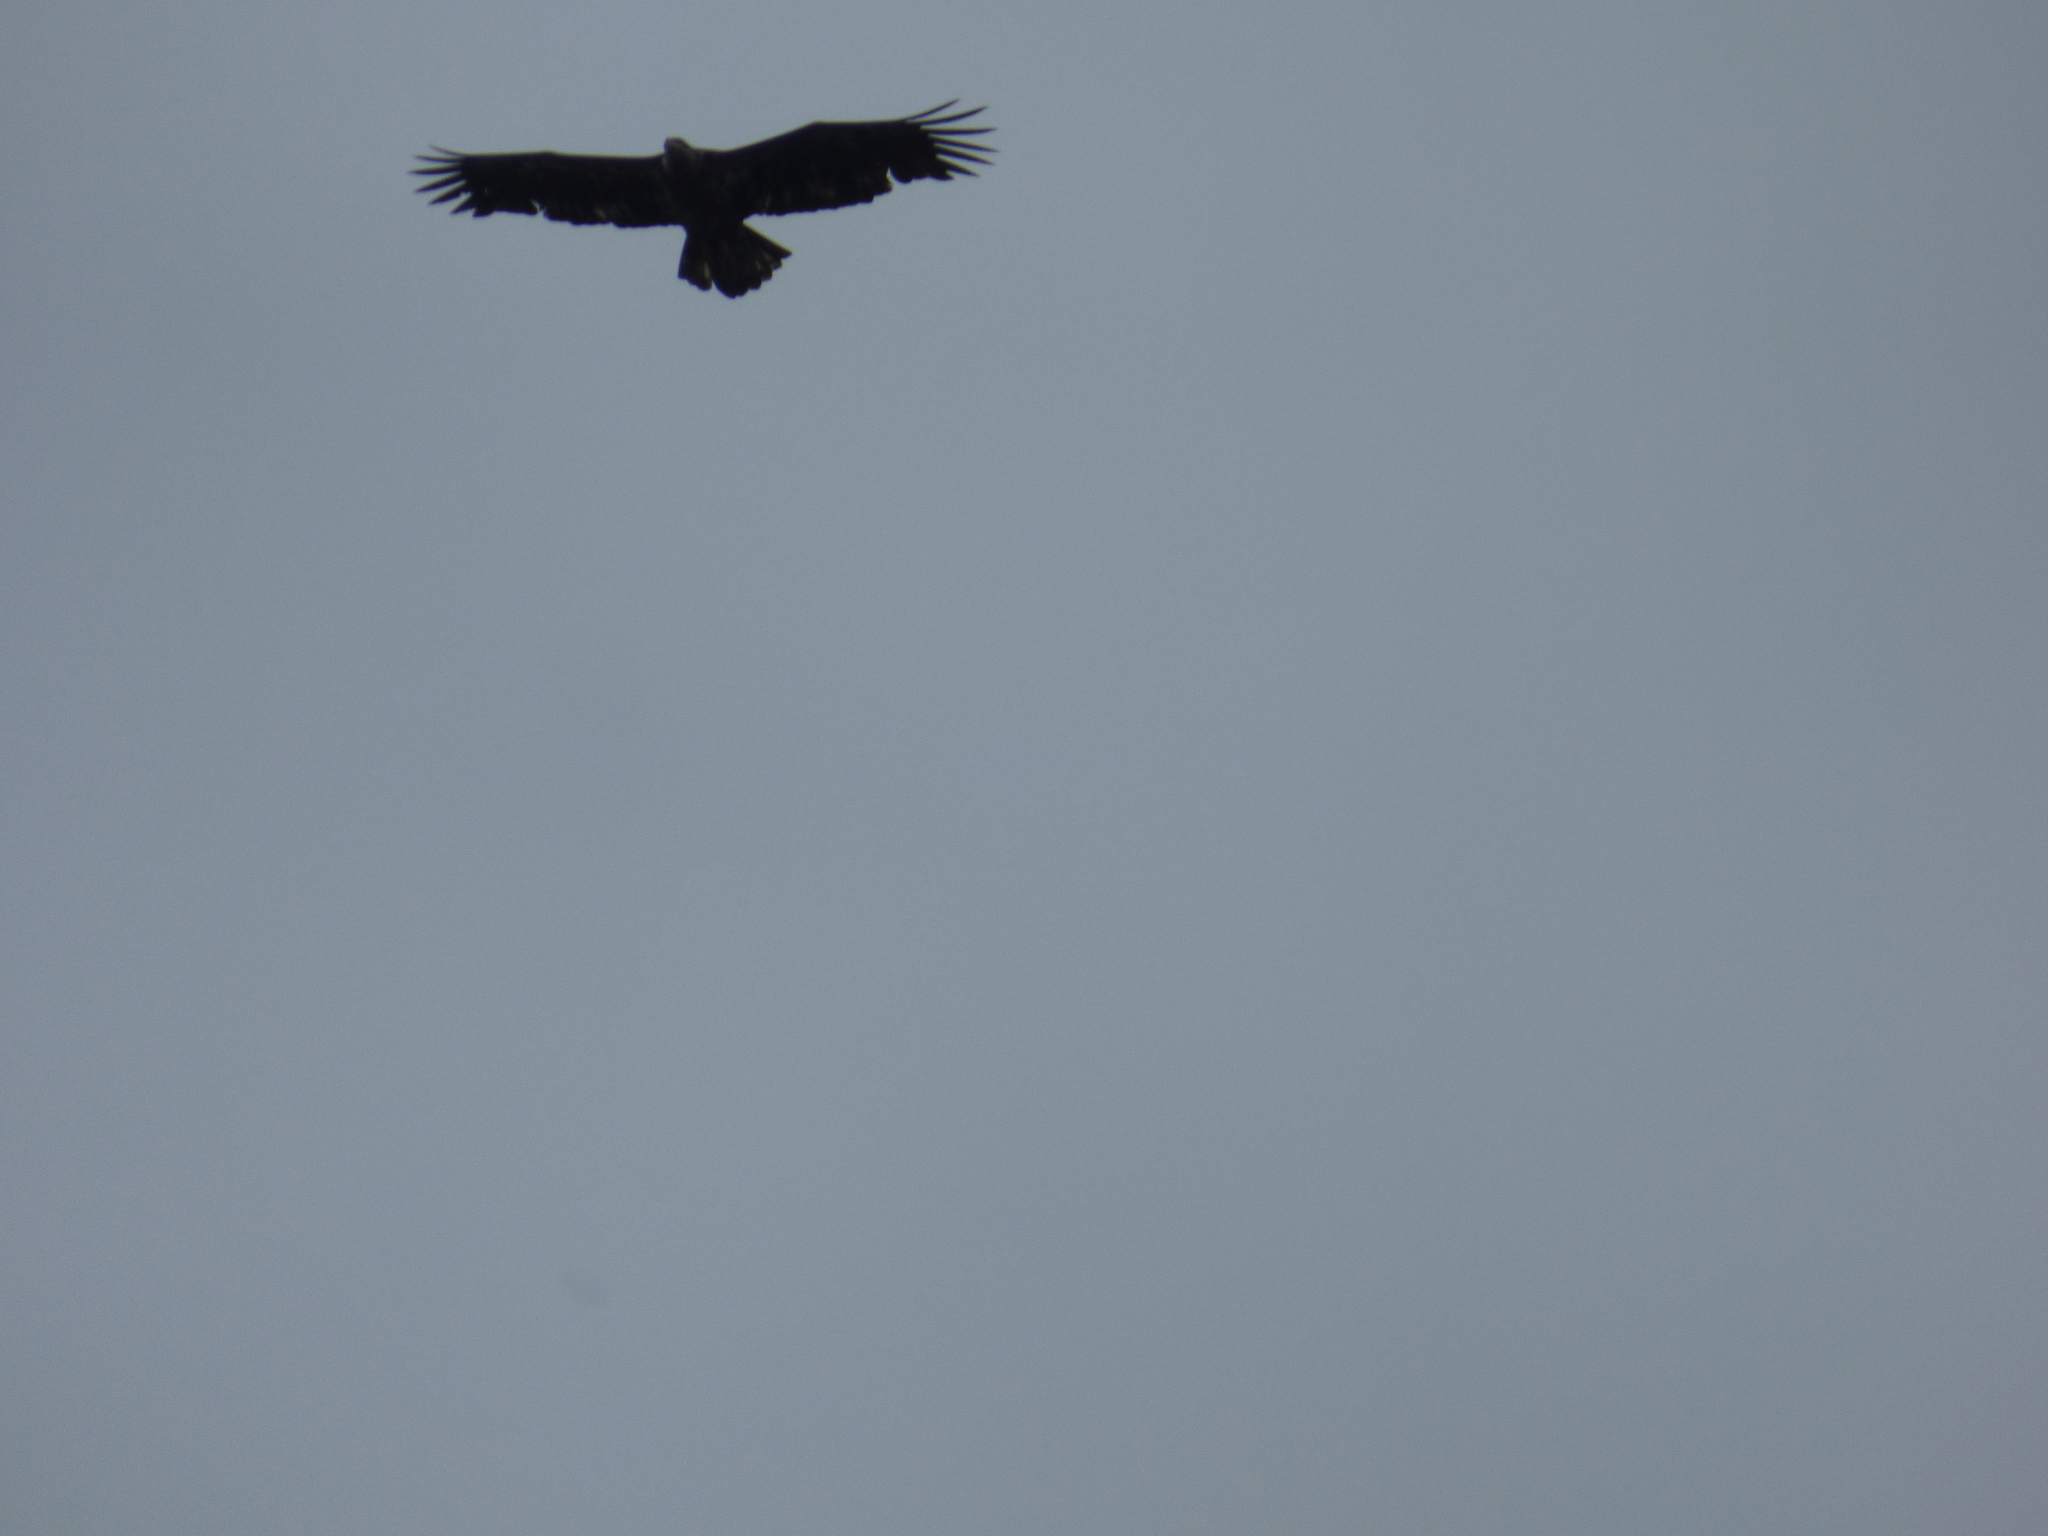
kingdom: Animalia
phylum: Chordata
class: Aves
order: Accipitriformes
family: Accipitridae
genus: Haliaeetus
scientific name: Haliaeetus leucocephalus
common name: Bald eagle
